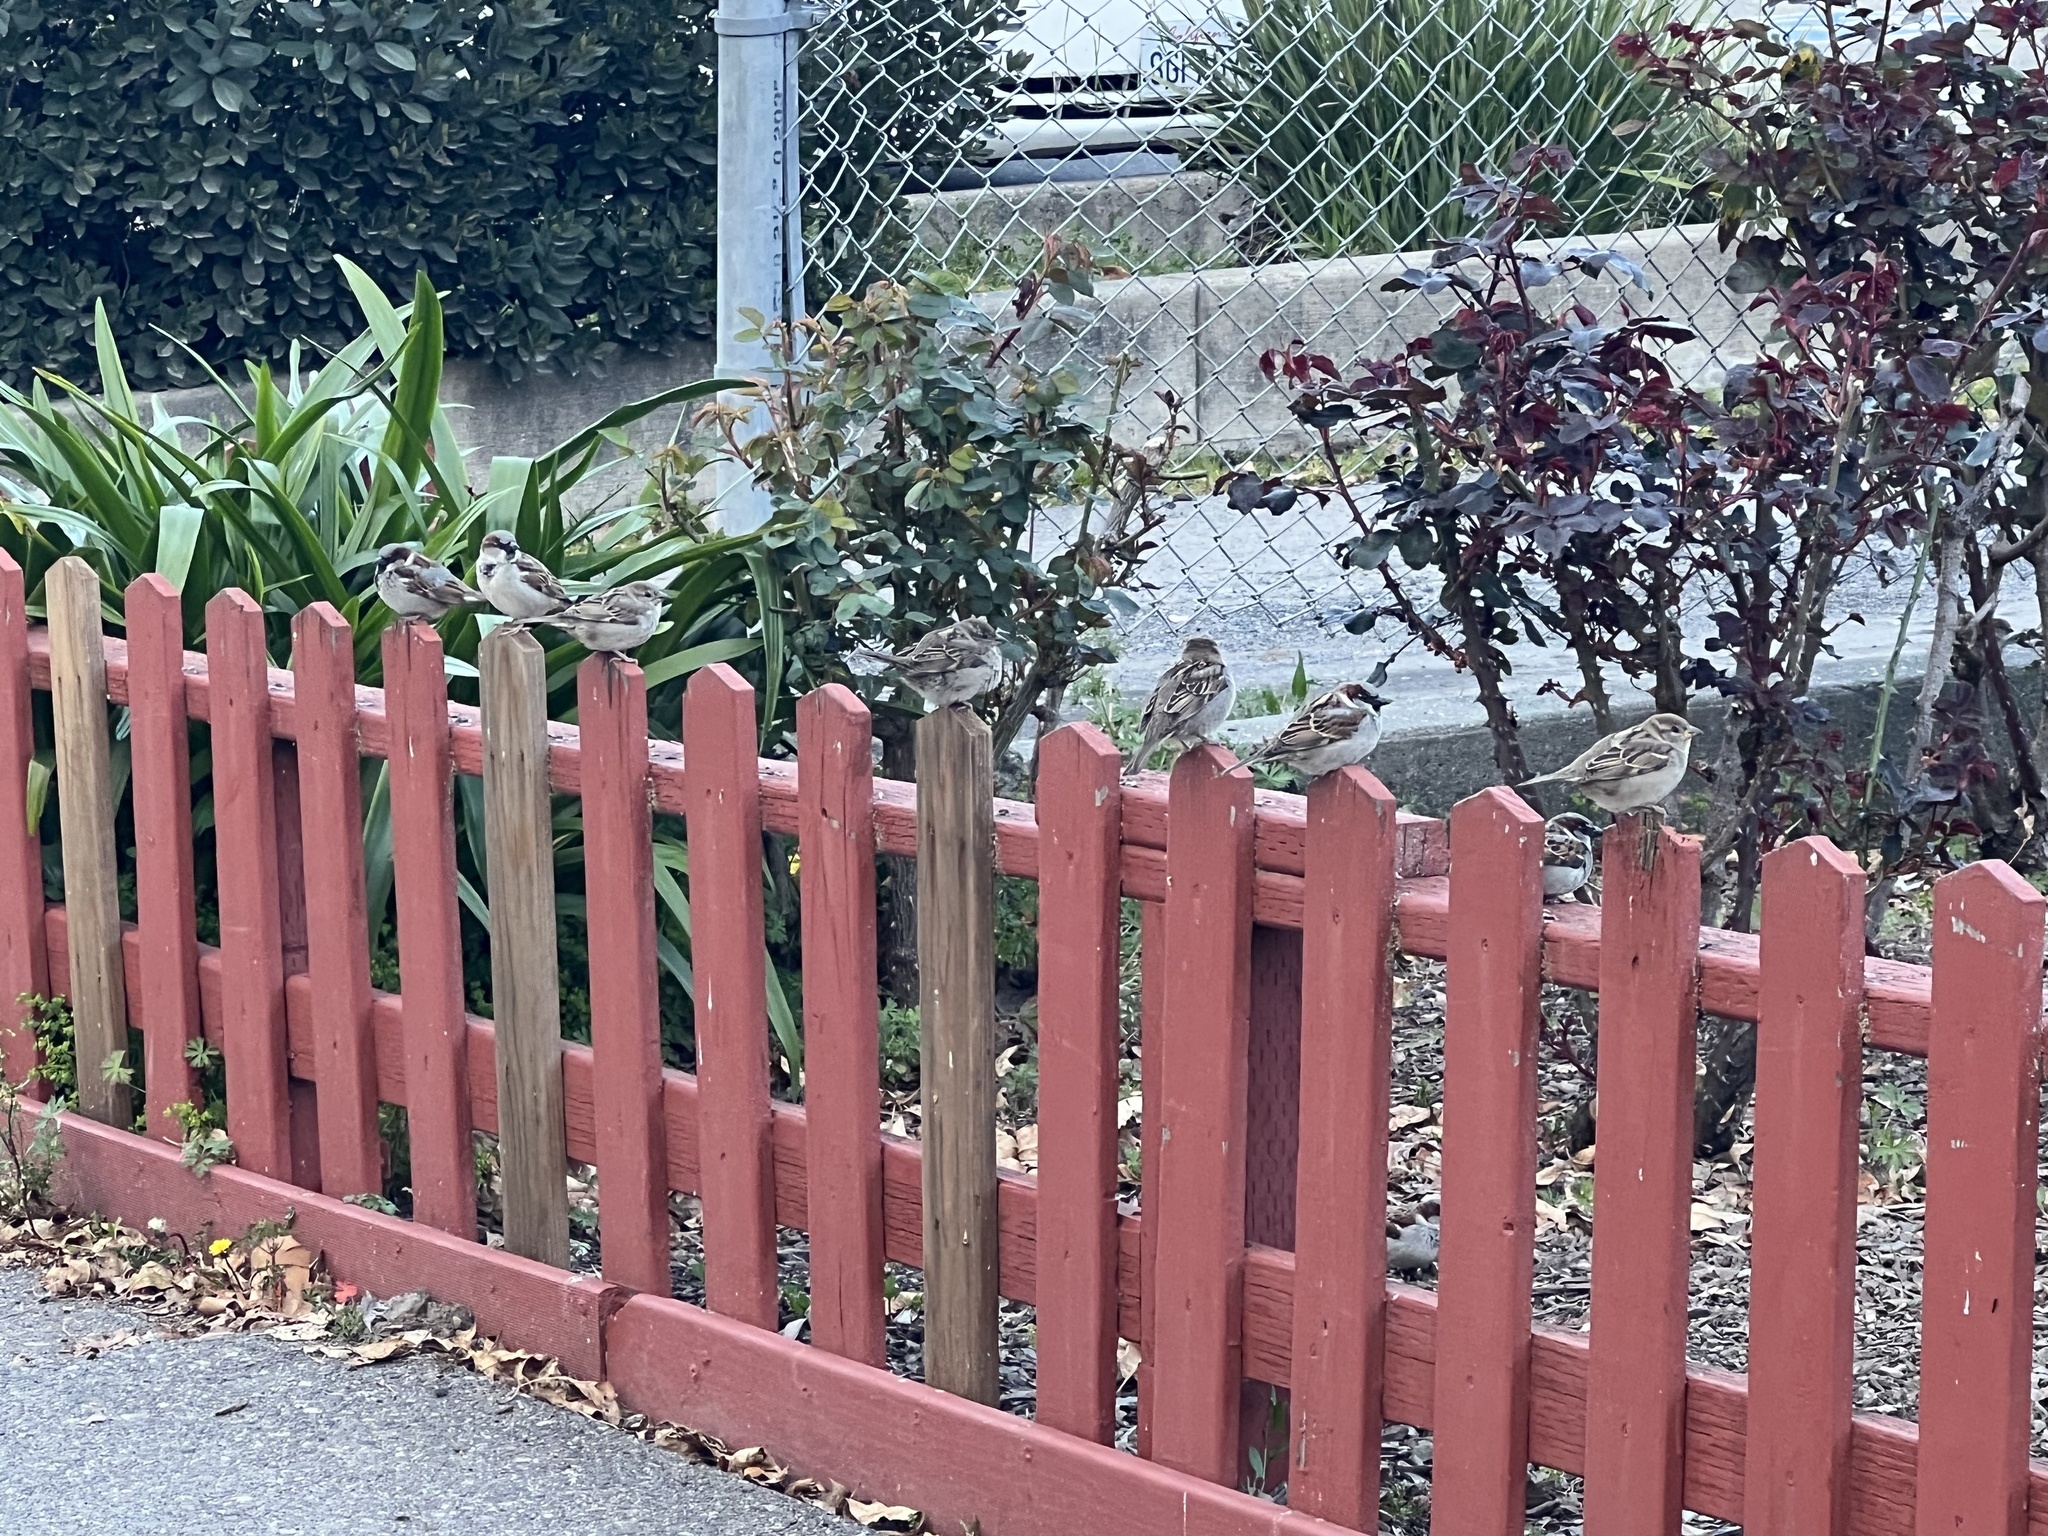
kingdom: Animalia
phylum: Chordata
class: Aves
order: Passeriformes
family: Passeridae
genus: Passer
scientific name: Passer domesticus
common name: House sparrow
